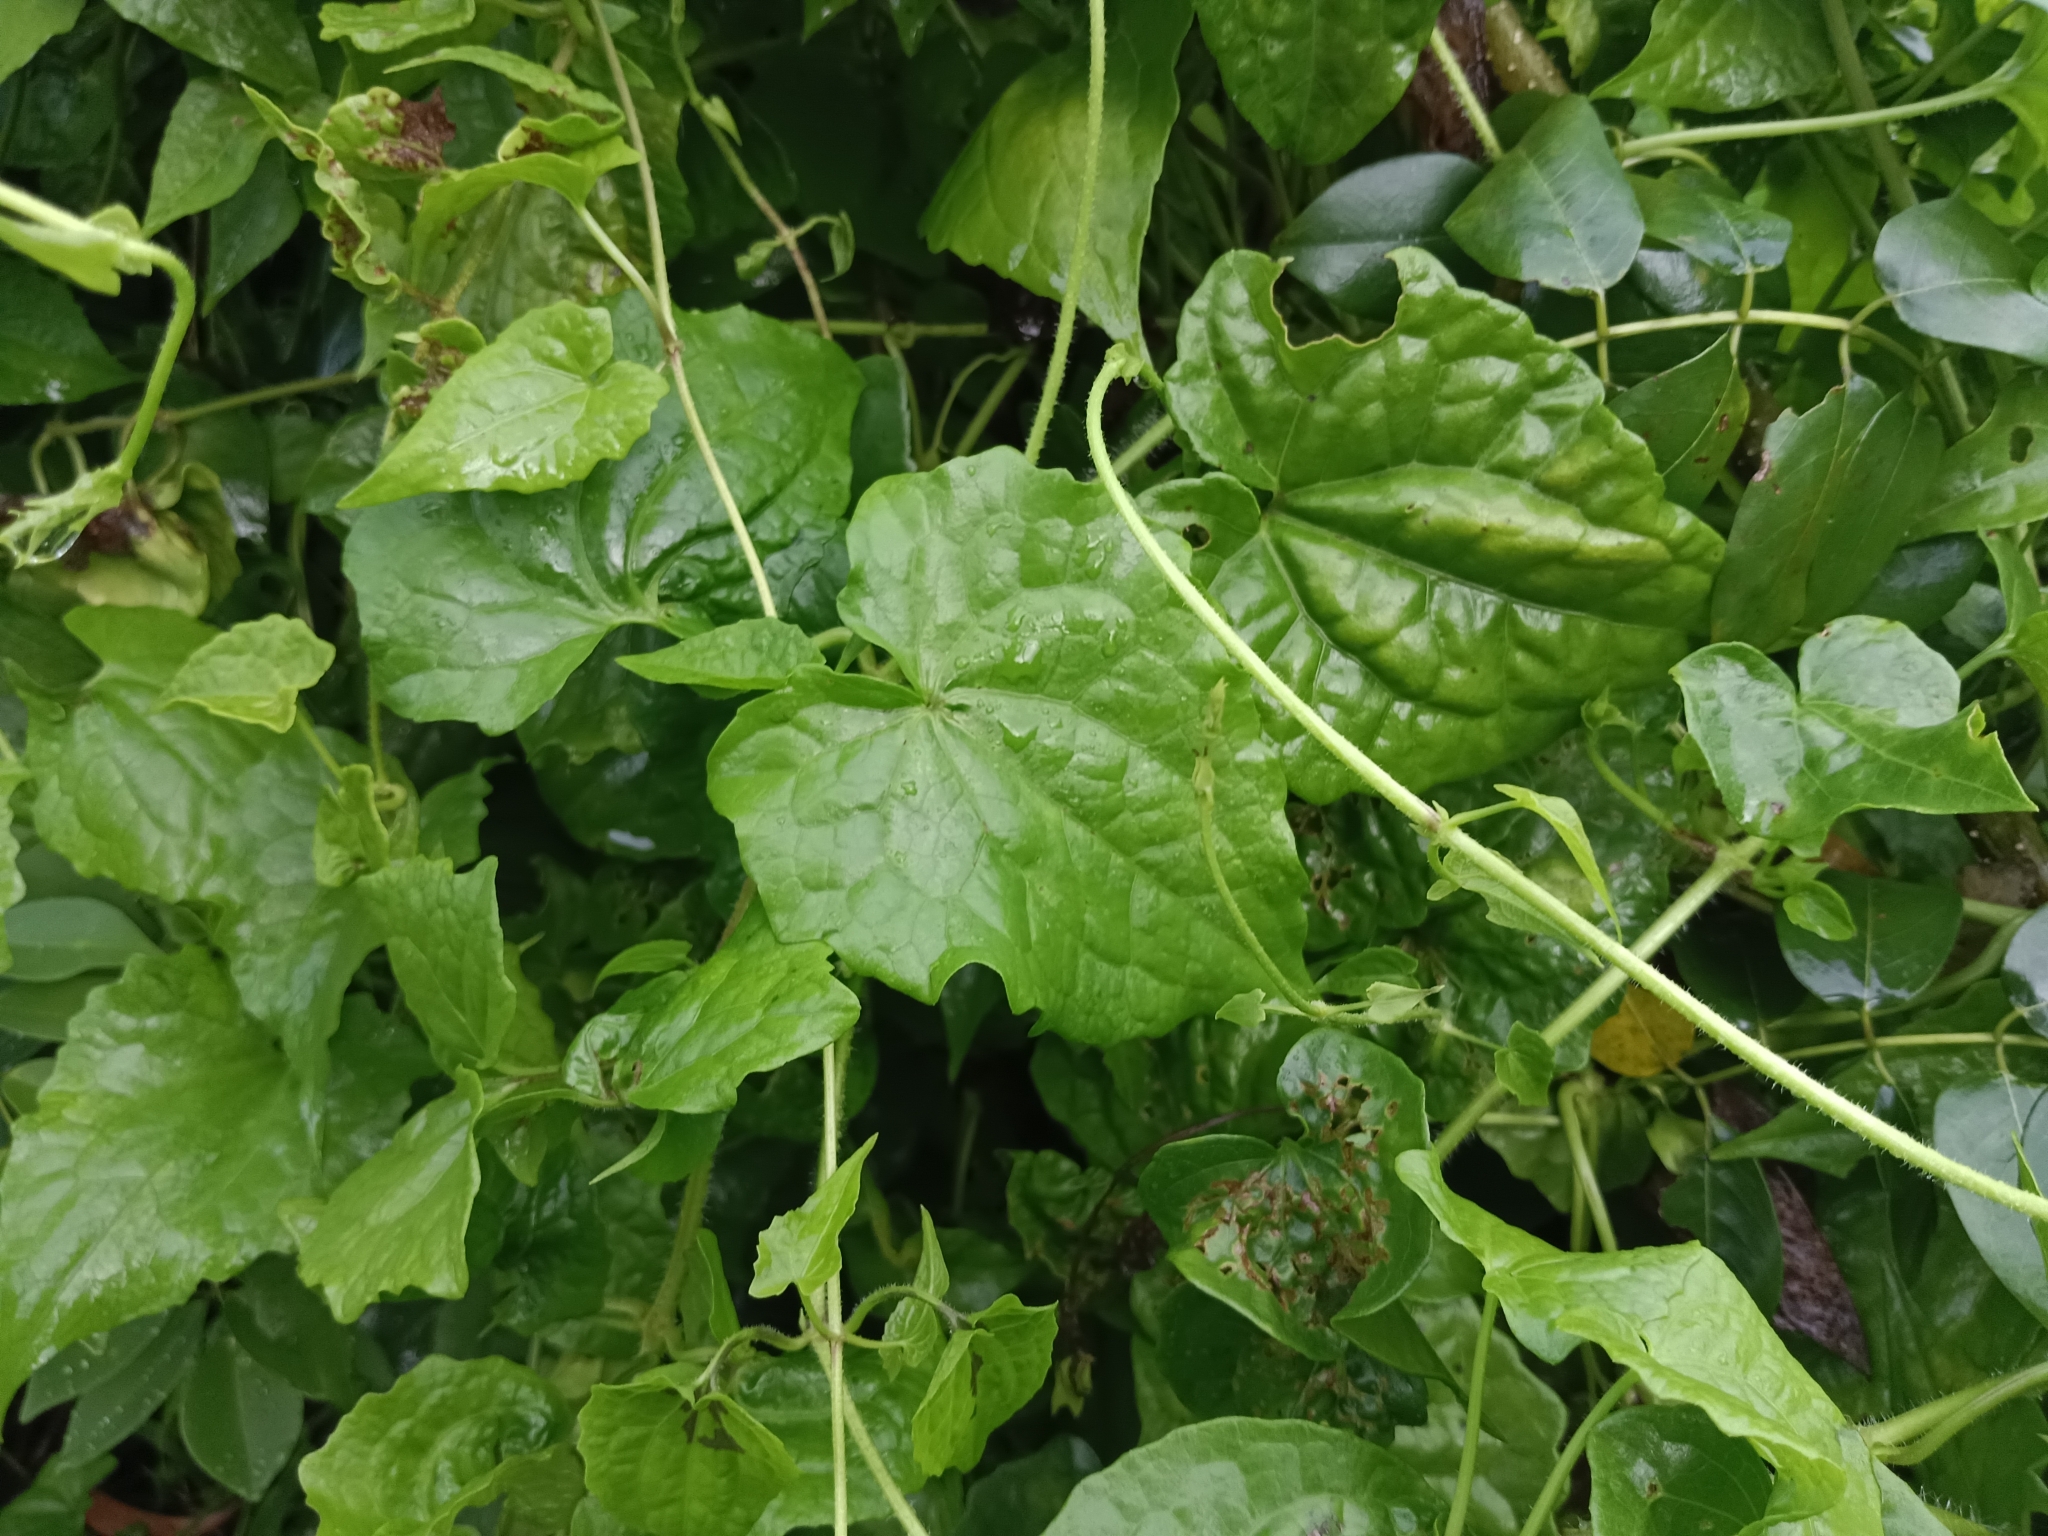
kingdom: Plantae
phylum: Tracheophyta
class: Magnoliopsida
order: Asterales
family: Asteraceae
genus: Mikania
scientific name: Mikania micrantha
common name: Mile-a-minute
